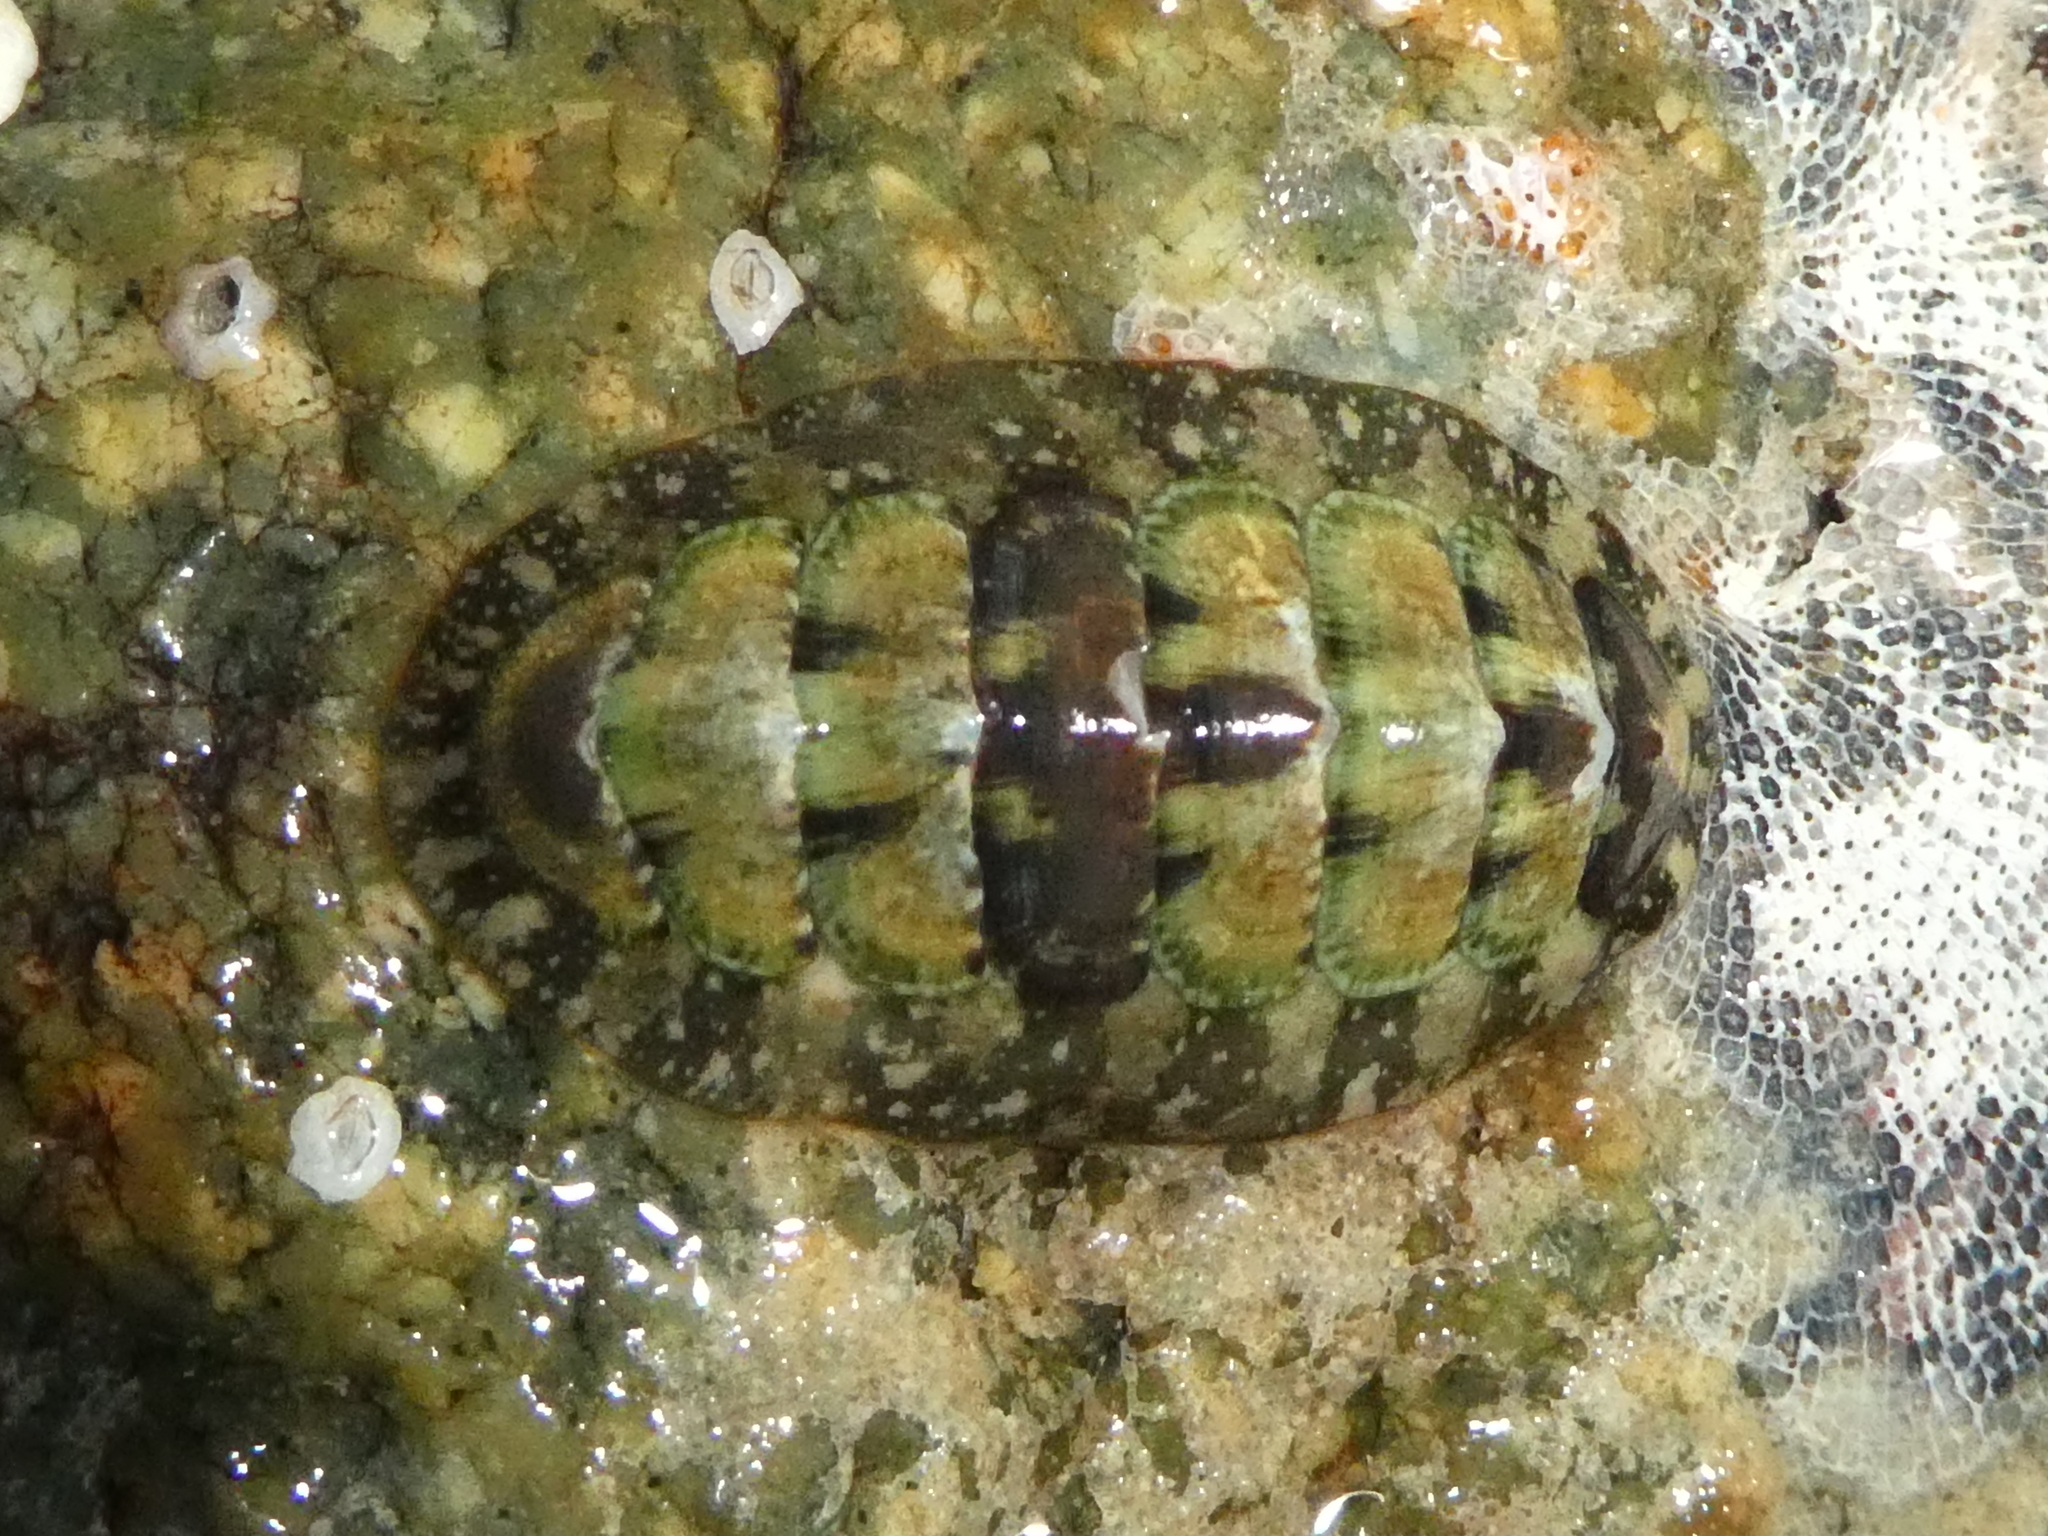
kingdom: Animalia
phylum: Mollusca
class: Polyplacophora
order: Chitonida
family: Tonicellidae
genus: Cyanoplax
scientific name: Cyanoplax dentiens
